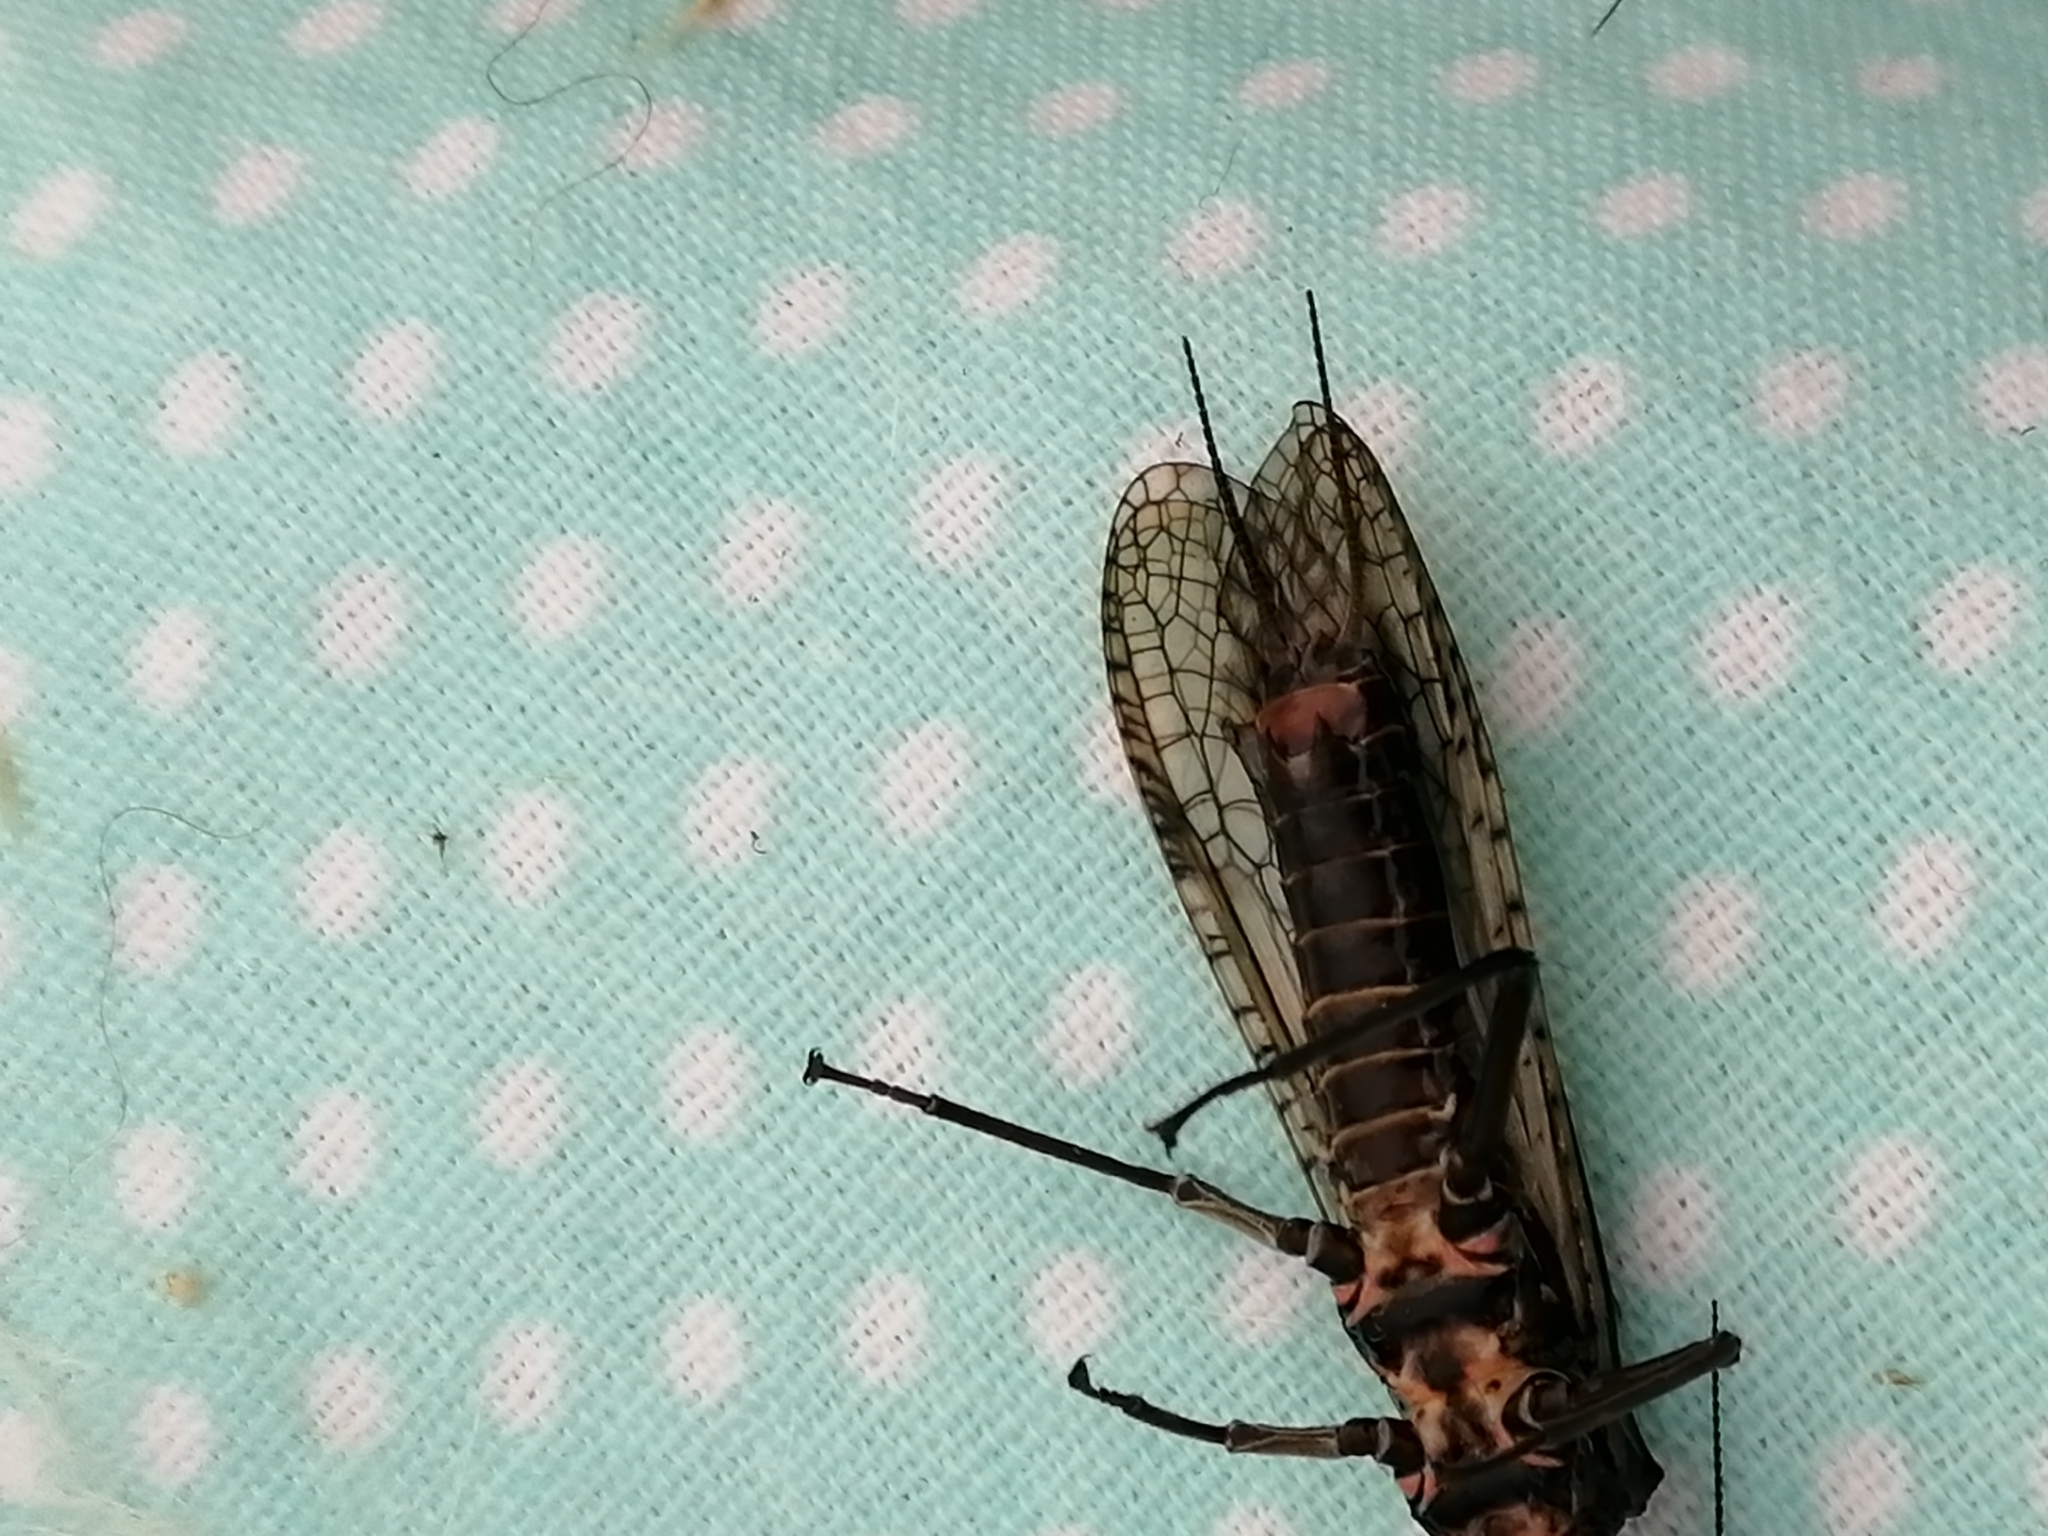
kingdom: Animalia
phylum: Arthropoda
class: Insecta
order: Plecoptera
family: Pteronarcyidae
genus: Pteronarcys
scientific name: Pteronarcys reticulata
